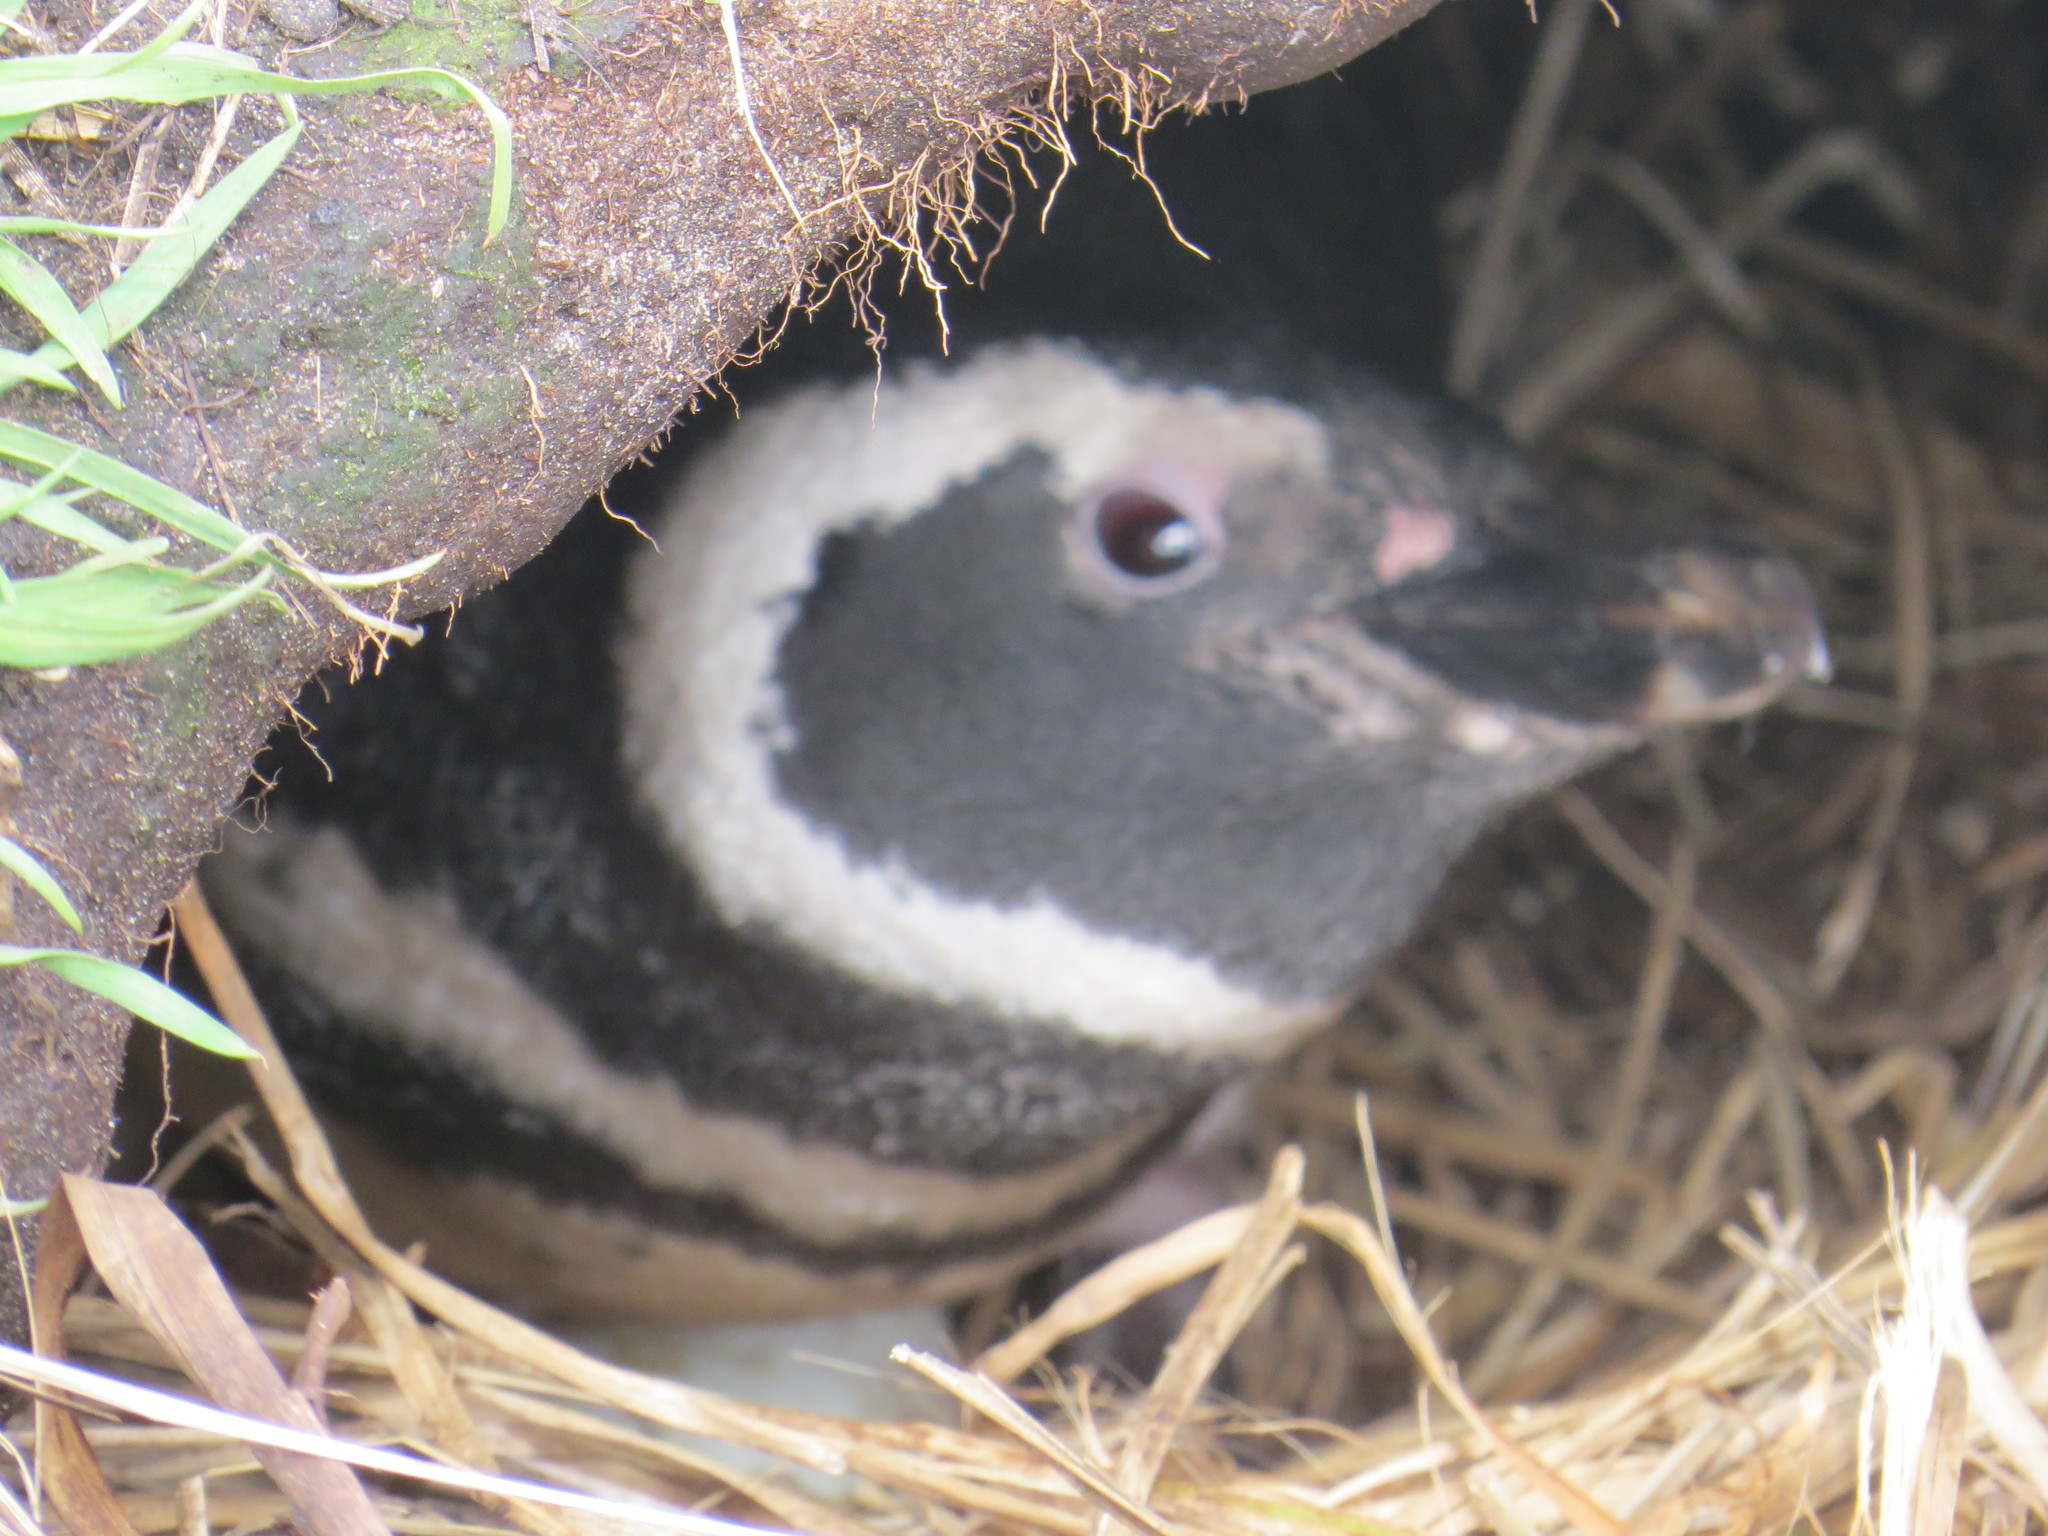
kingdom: Animalia
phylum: Chordata
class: Aves
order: Sphenisciformes
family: Spheniscidae
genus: Spheniscus
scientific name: Spheniscus magellanicus
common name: Magellanic penguin
